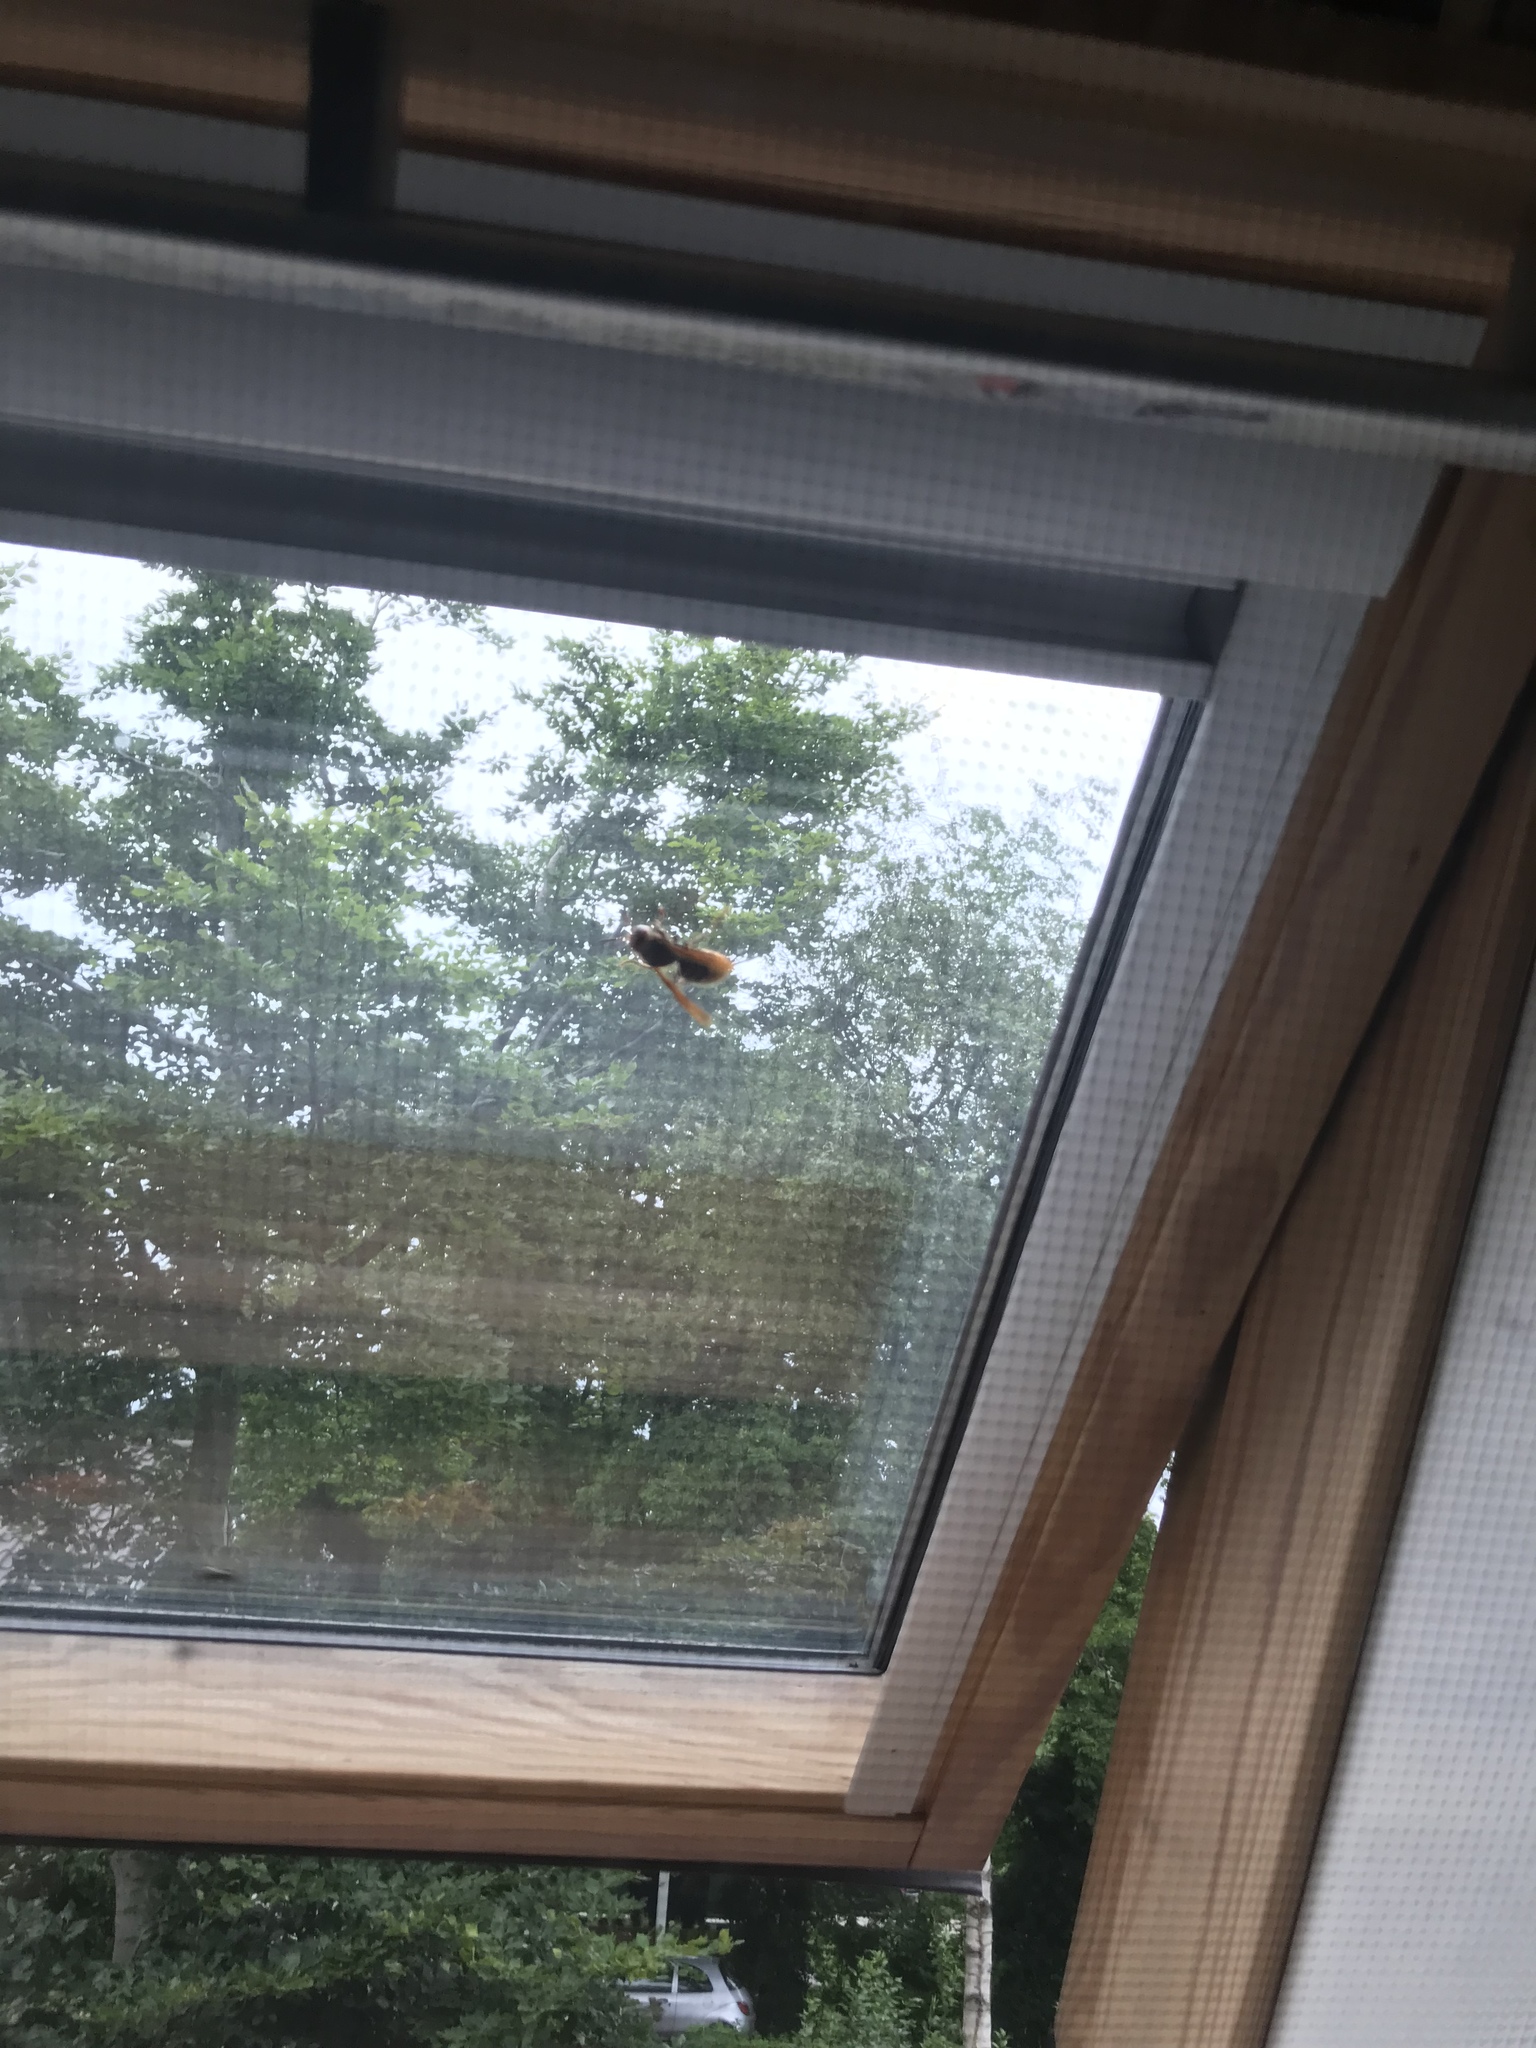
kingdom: Animalia
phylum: Arthropoda
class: Insecta
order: Hymenoptera
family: Vespidae
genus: Vespa
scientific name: Vespa crabro
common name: Hornet
